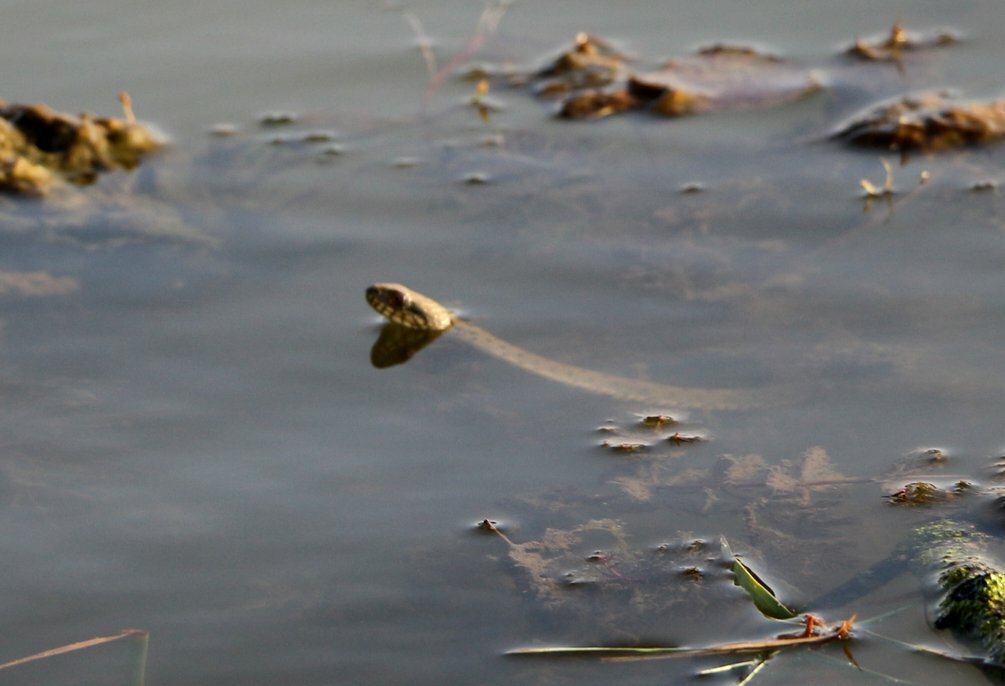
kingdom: Animalia
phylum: Chordata
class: Squamata
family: Colubridae
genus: Natrix
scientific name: Natrix tessellata
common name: Dice snake
